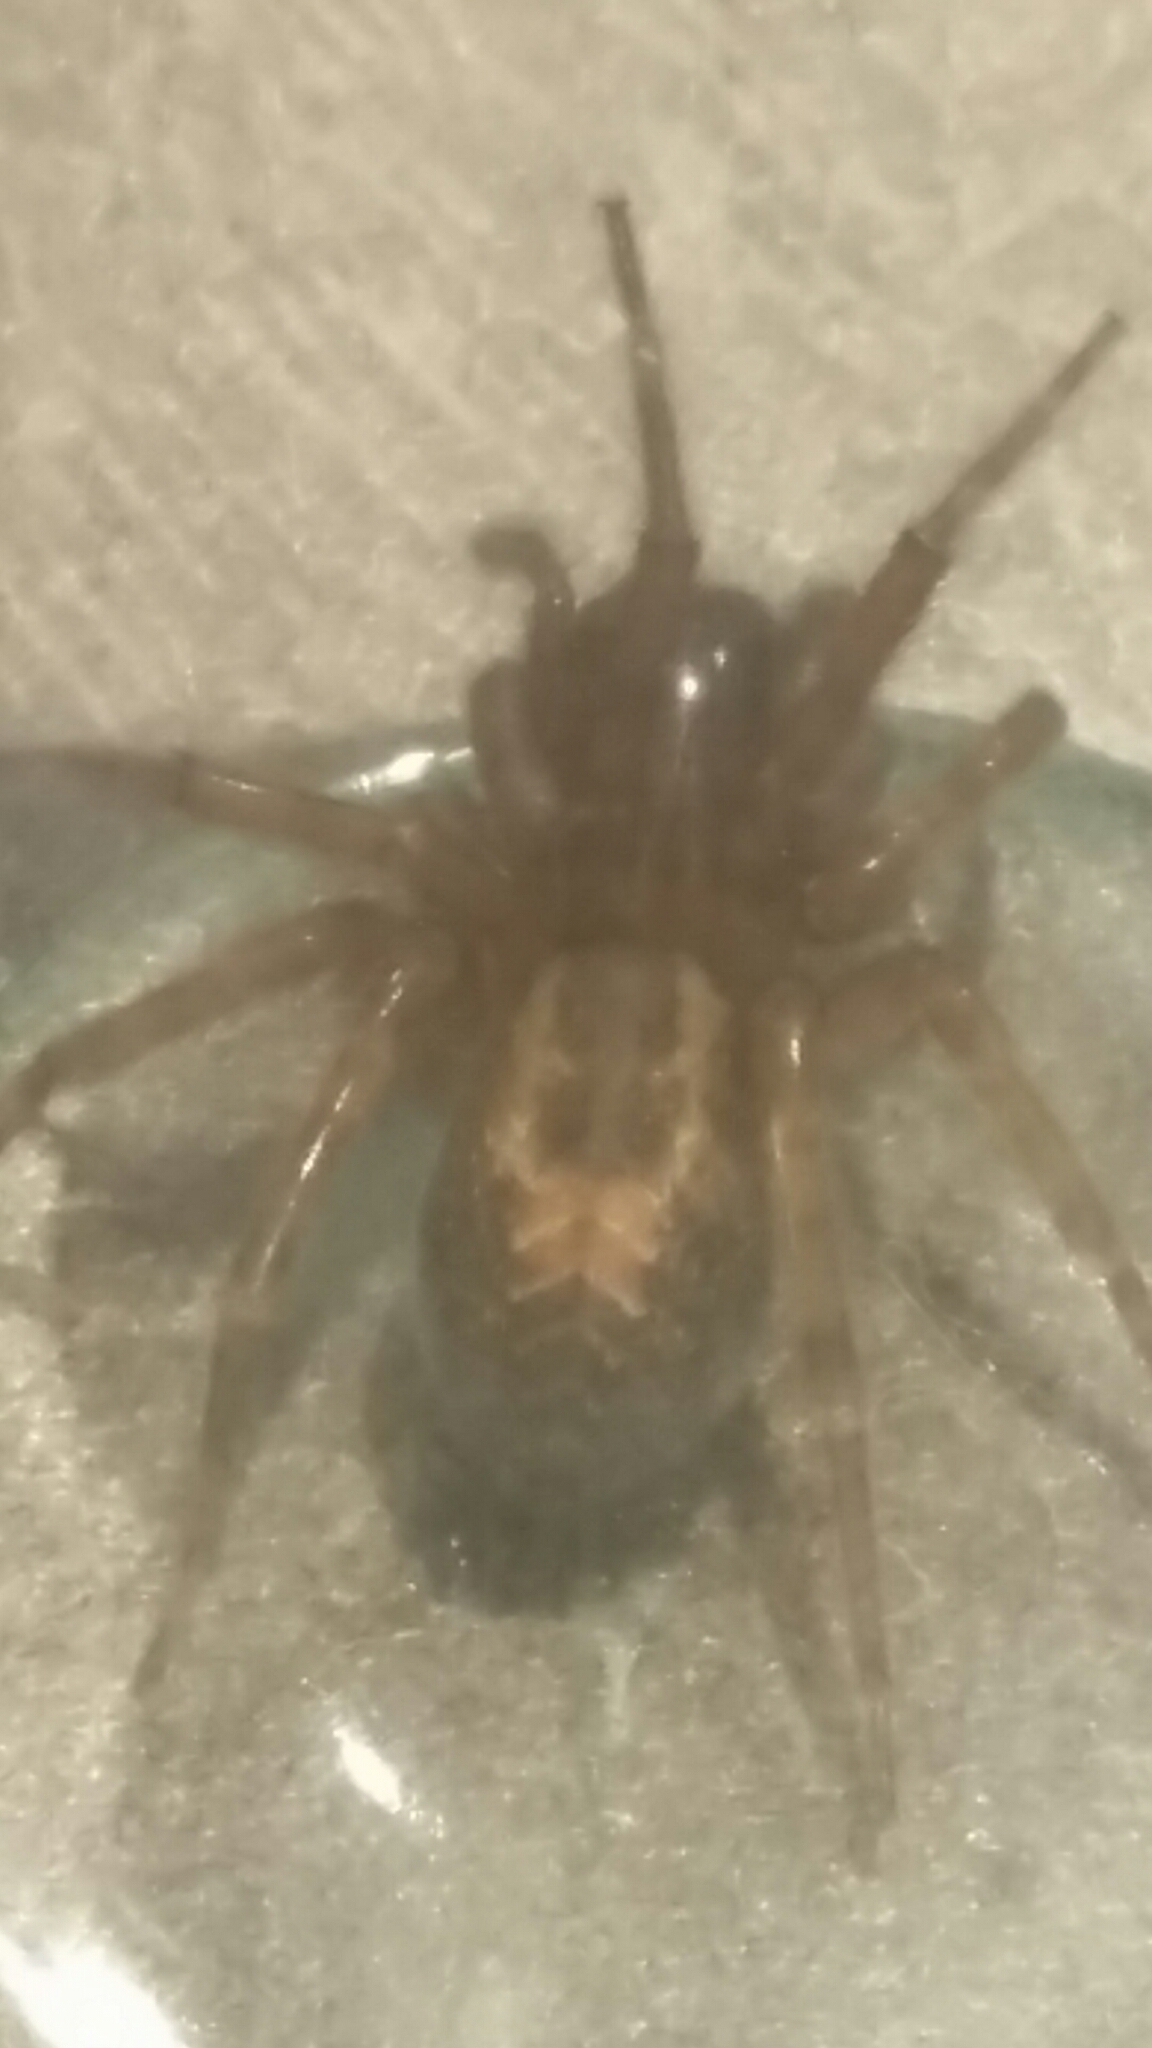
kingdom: Animalia
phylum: Arthropoda
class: Arachnida
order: Araneae
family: Amaurobiidae
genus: Amaurobius
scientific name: Amaurobius similis
